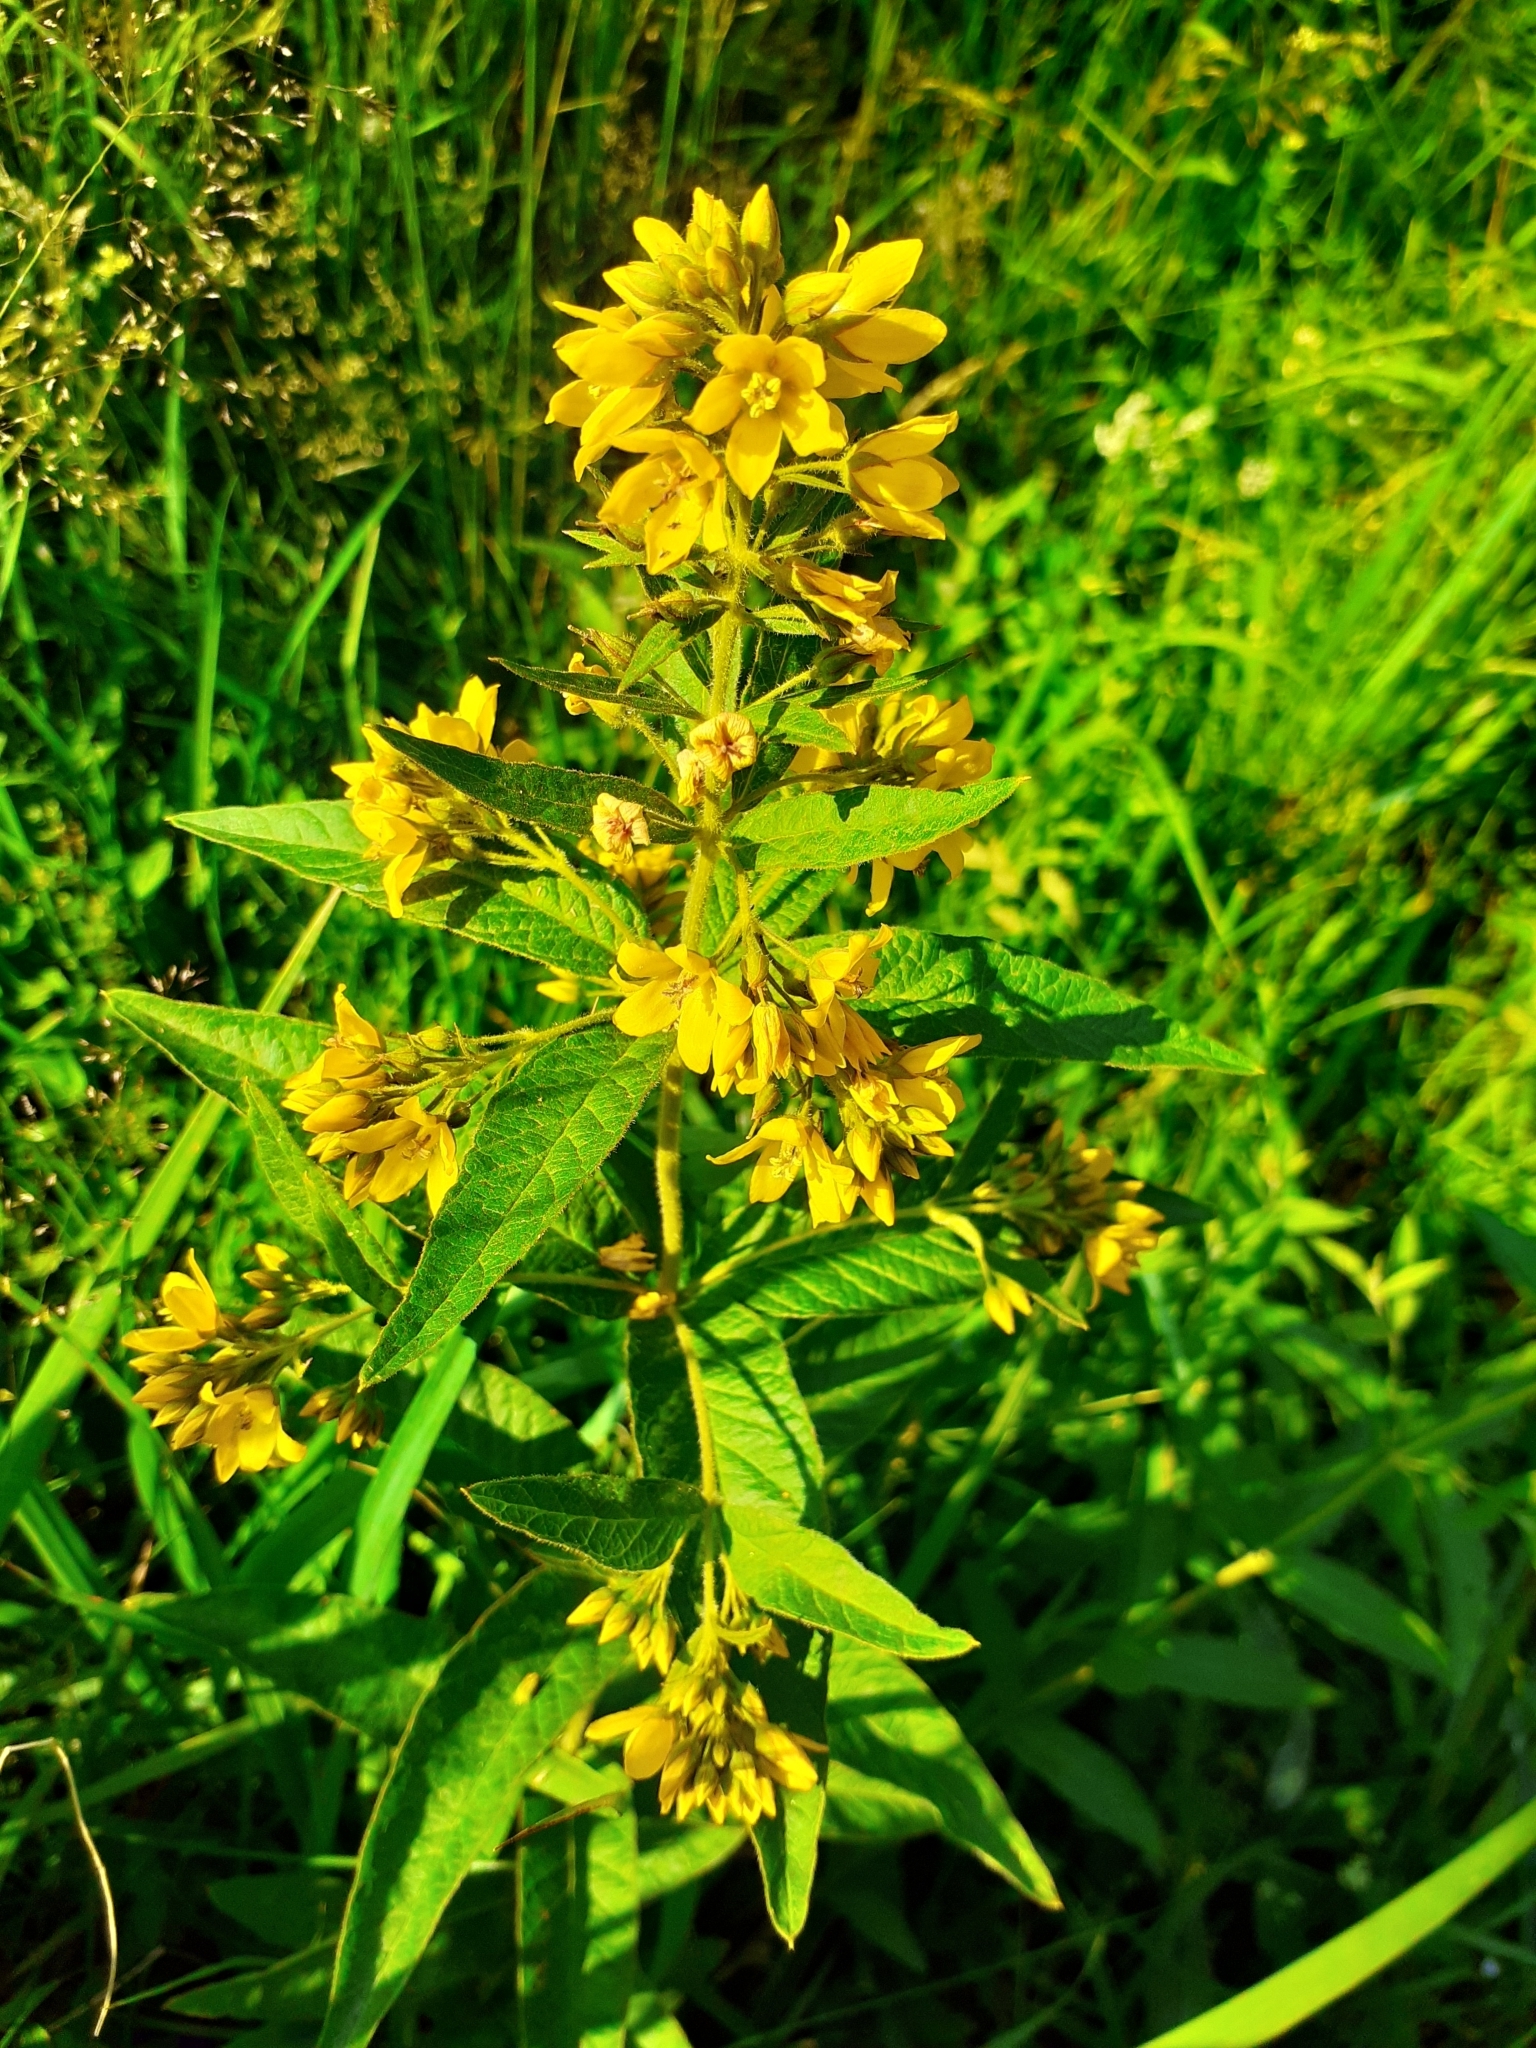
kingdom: Plantae
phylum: Tracheophyta
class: Magnoliopsida
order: Ericales
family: Primulaceae
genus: Lysimachia
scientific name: Lysimachia vulgaris
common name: Yellow loosestrife
